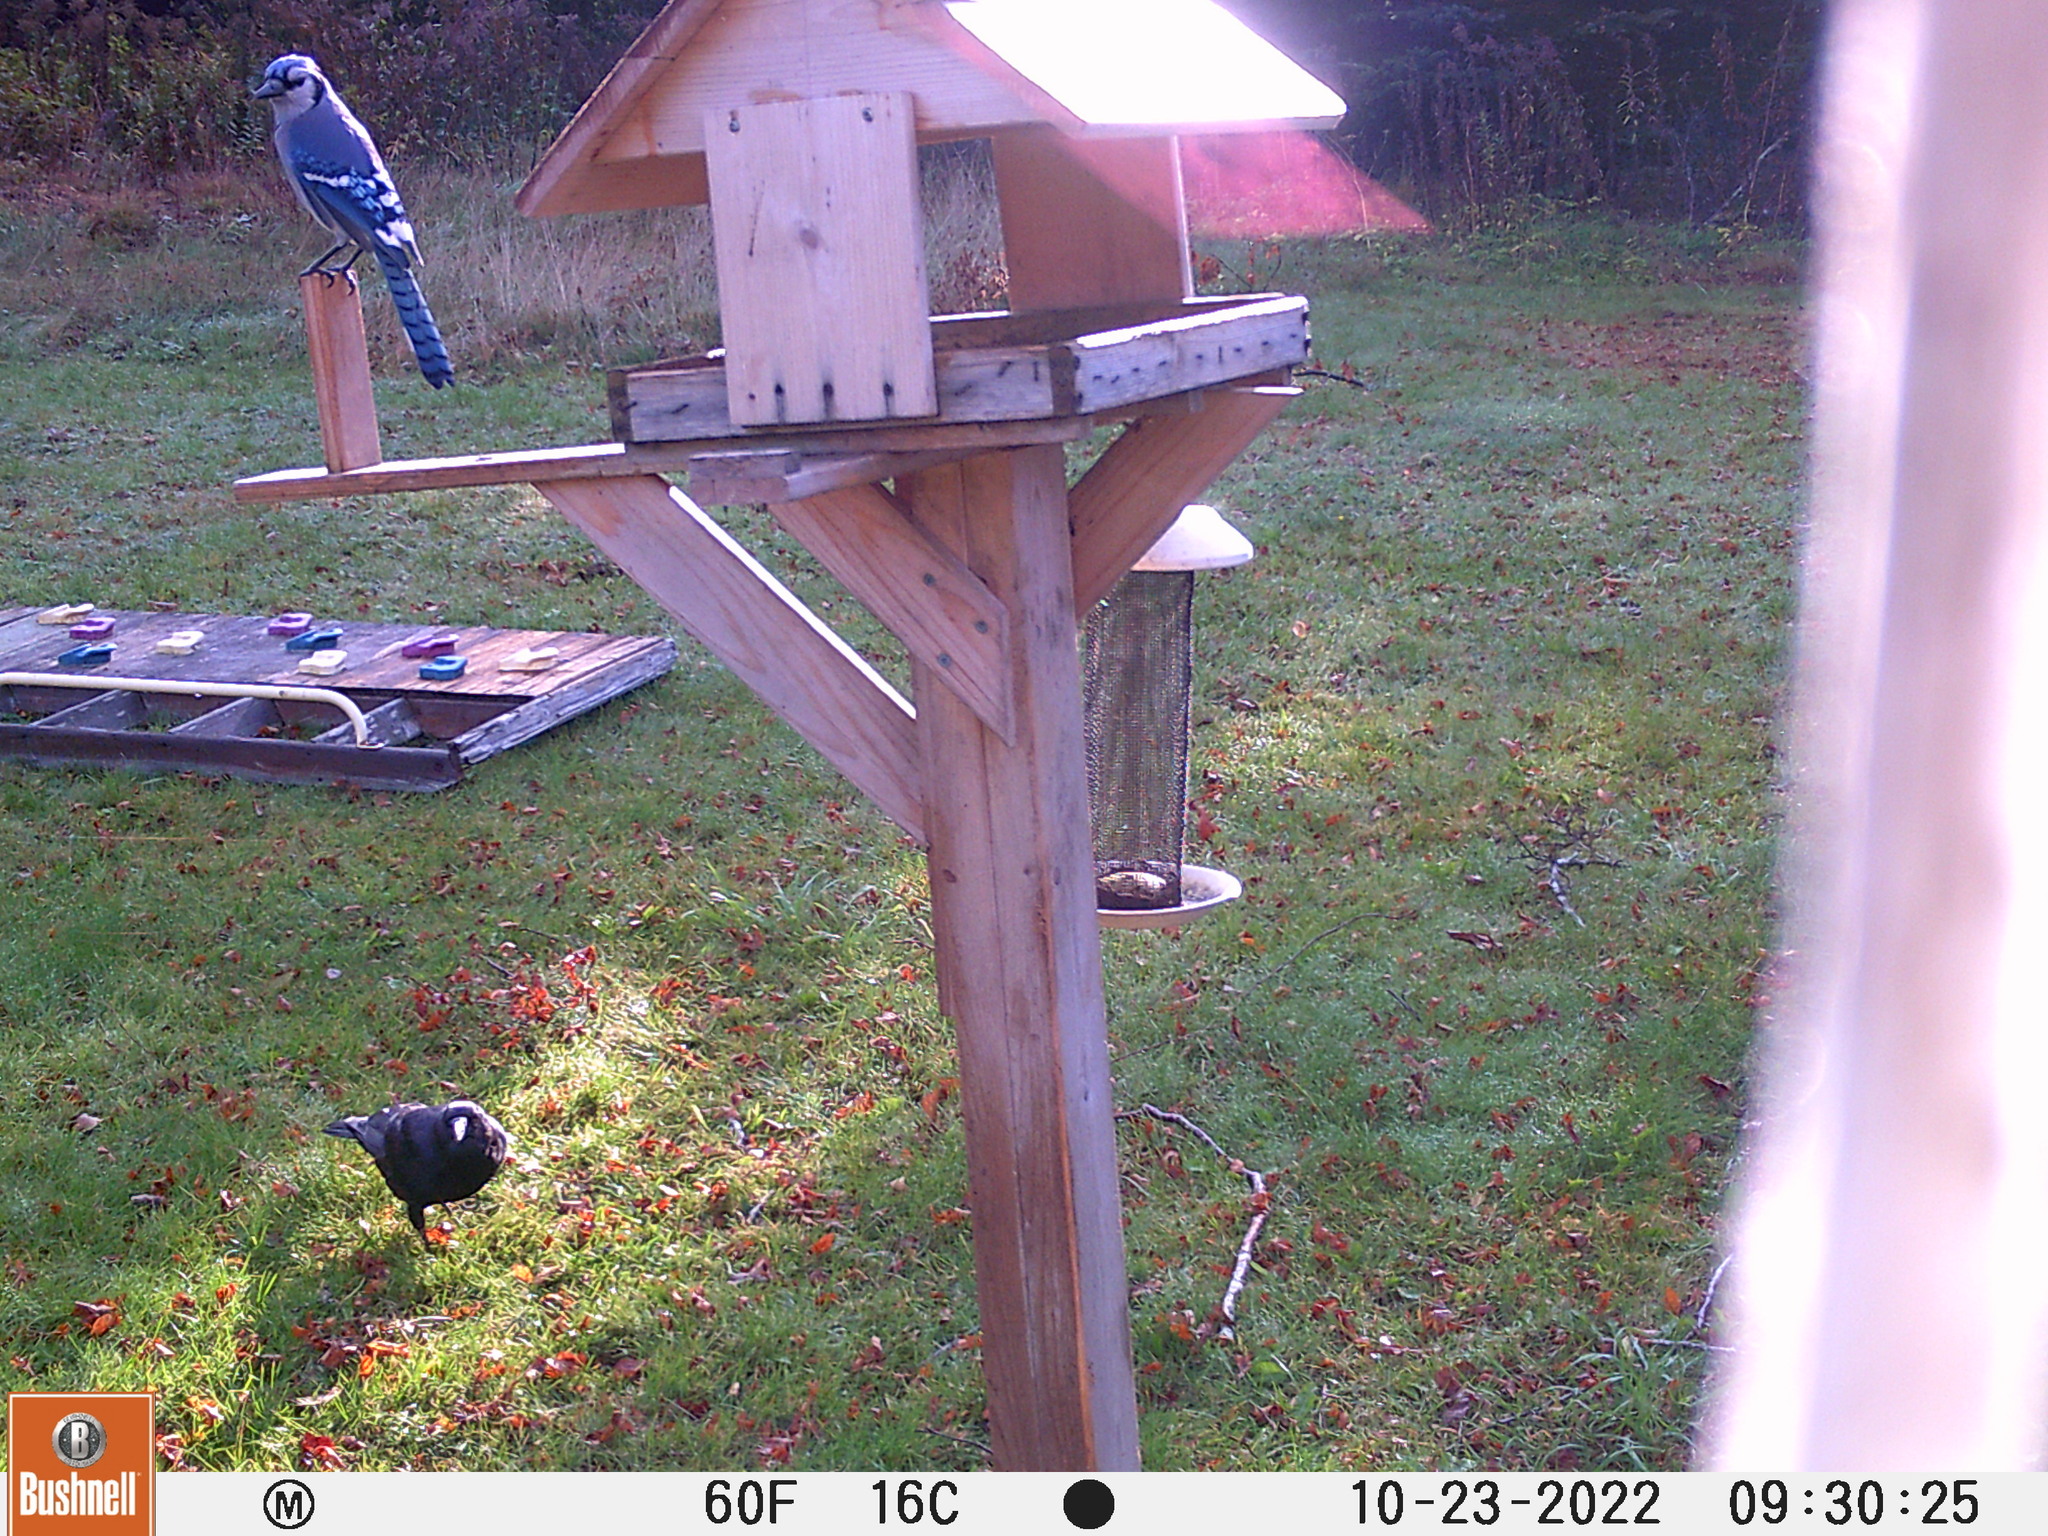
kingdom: Animalia
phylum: Chordata
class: Aves
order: Passeriformes
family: Corvidae
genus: Cyanocitta
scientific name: Cyanocitta cristata
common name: Blue jay
